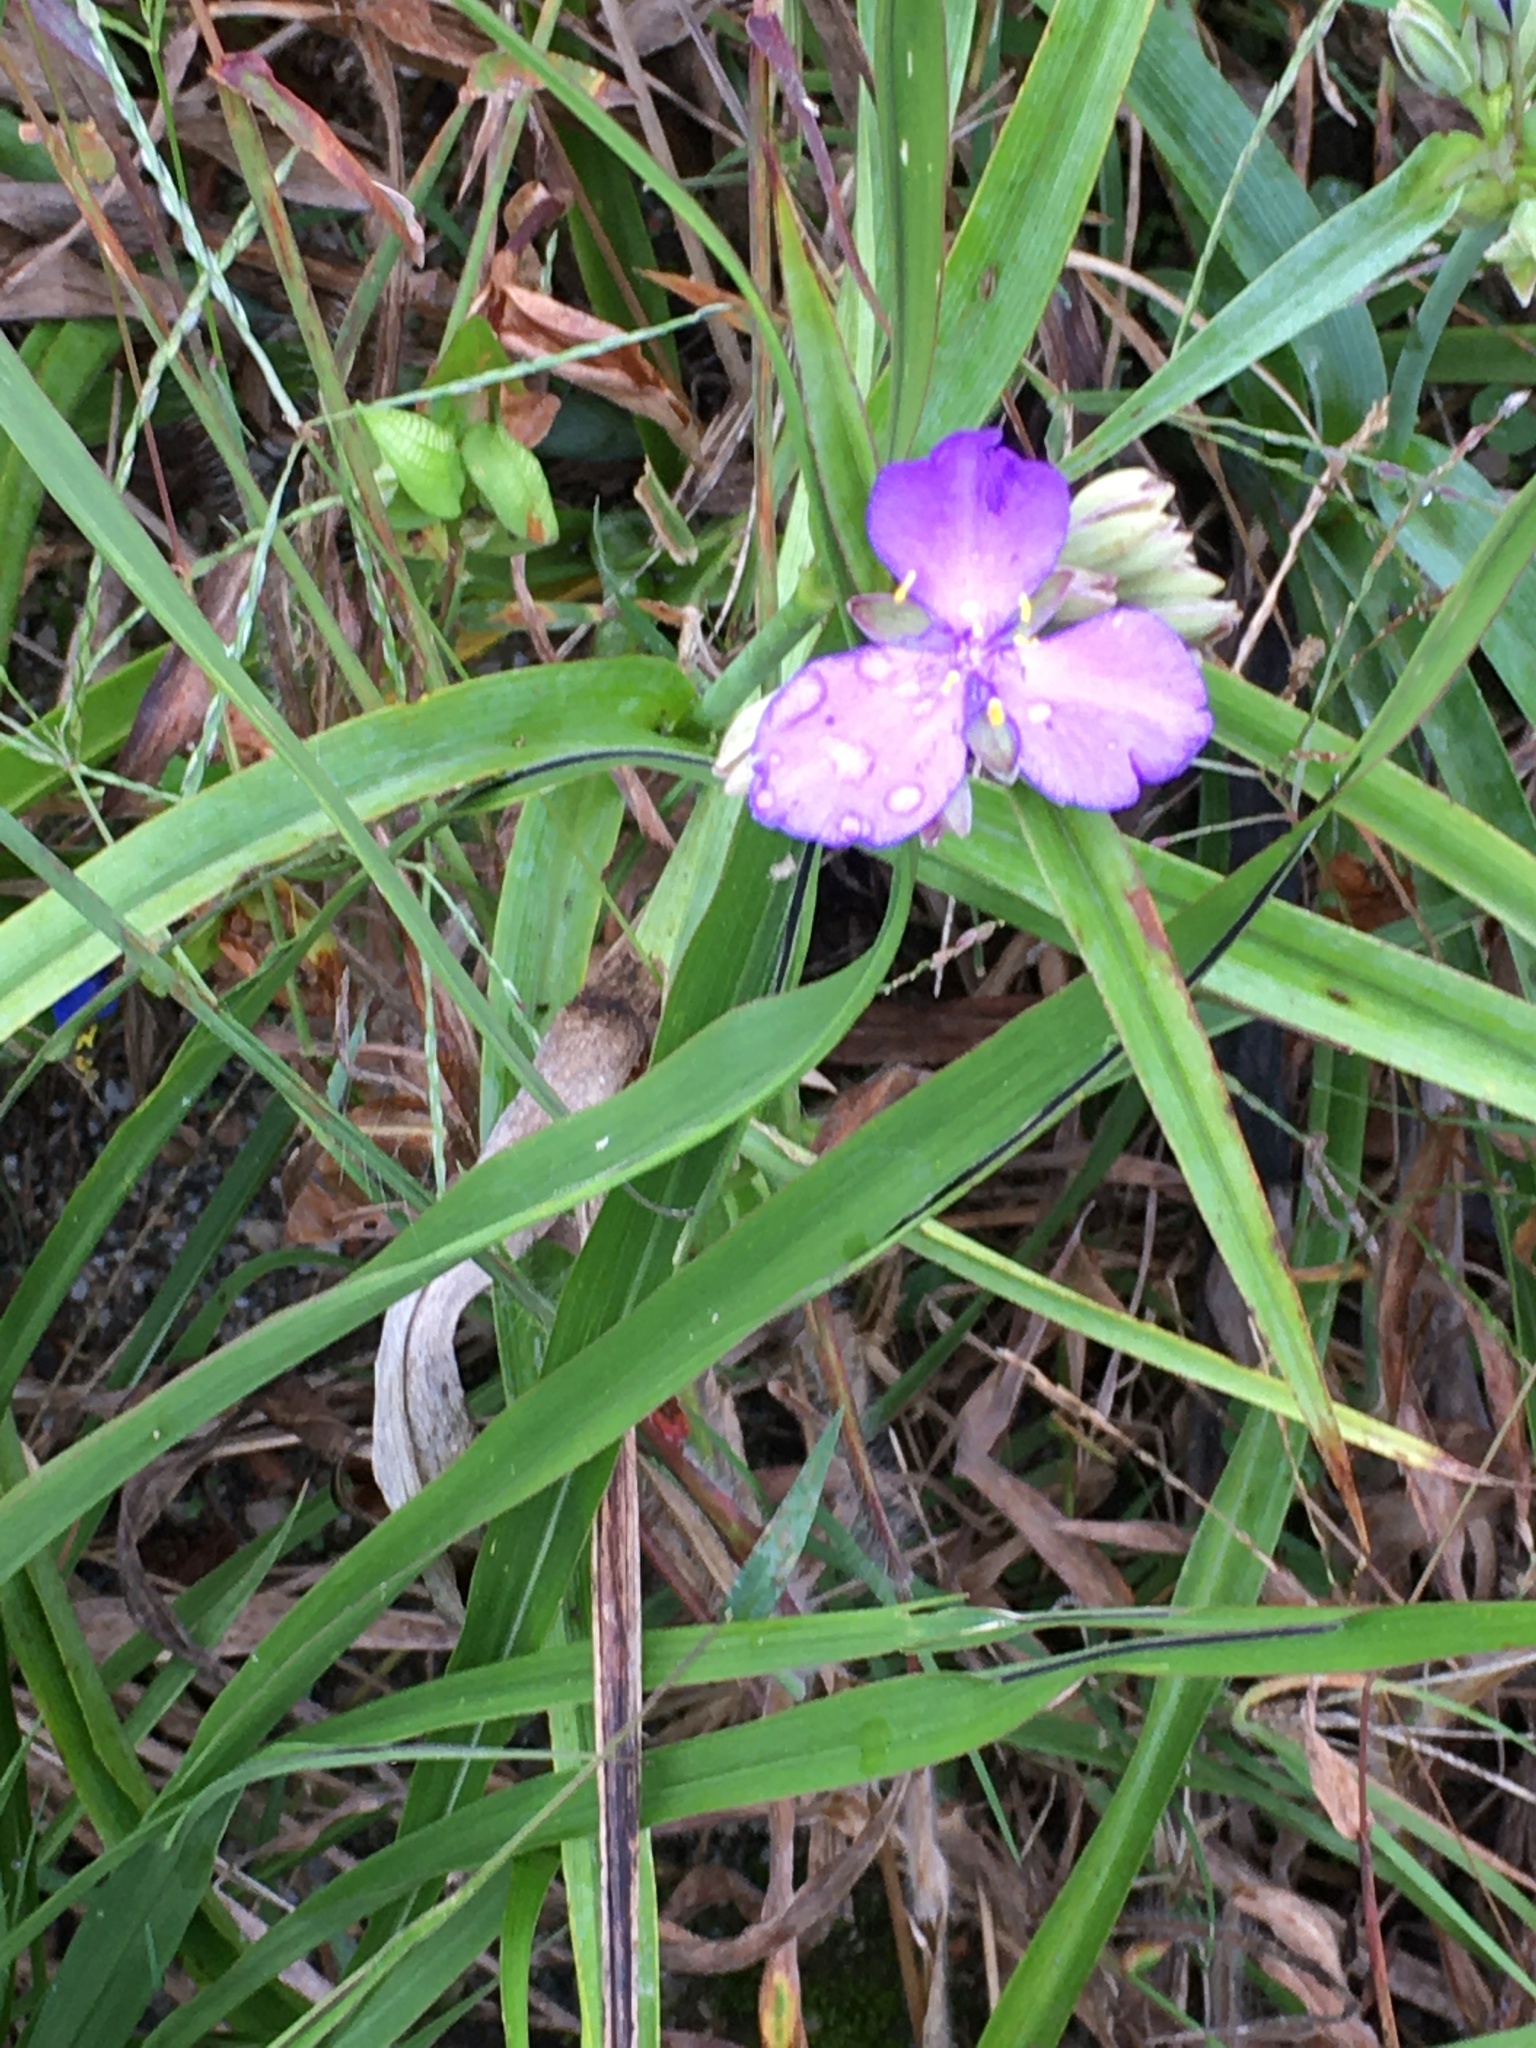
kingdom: Plantae
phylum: Tracheophyta
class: Liliopsida
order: Commelinales
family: Commelinaceae
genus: Tradescantia
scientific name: Tradescantia ohiensis
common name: Ohio spiderwort
